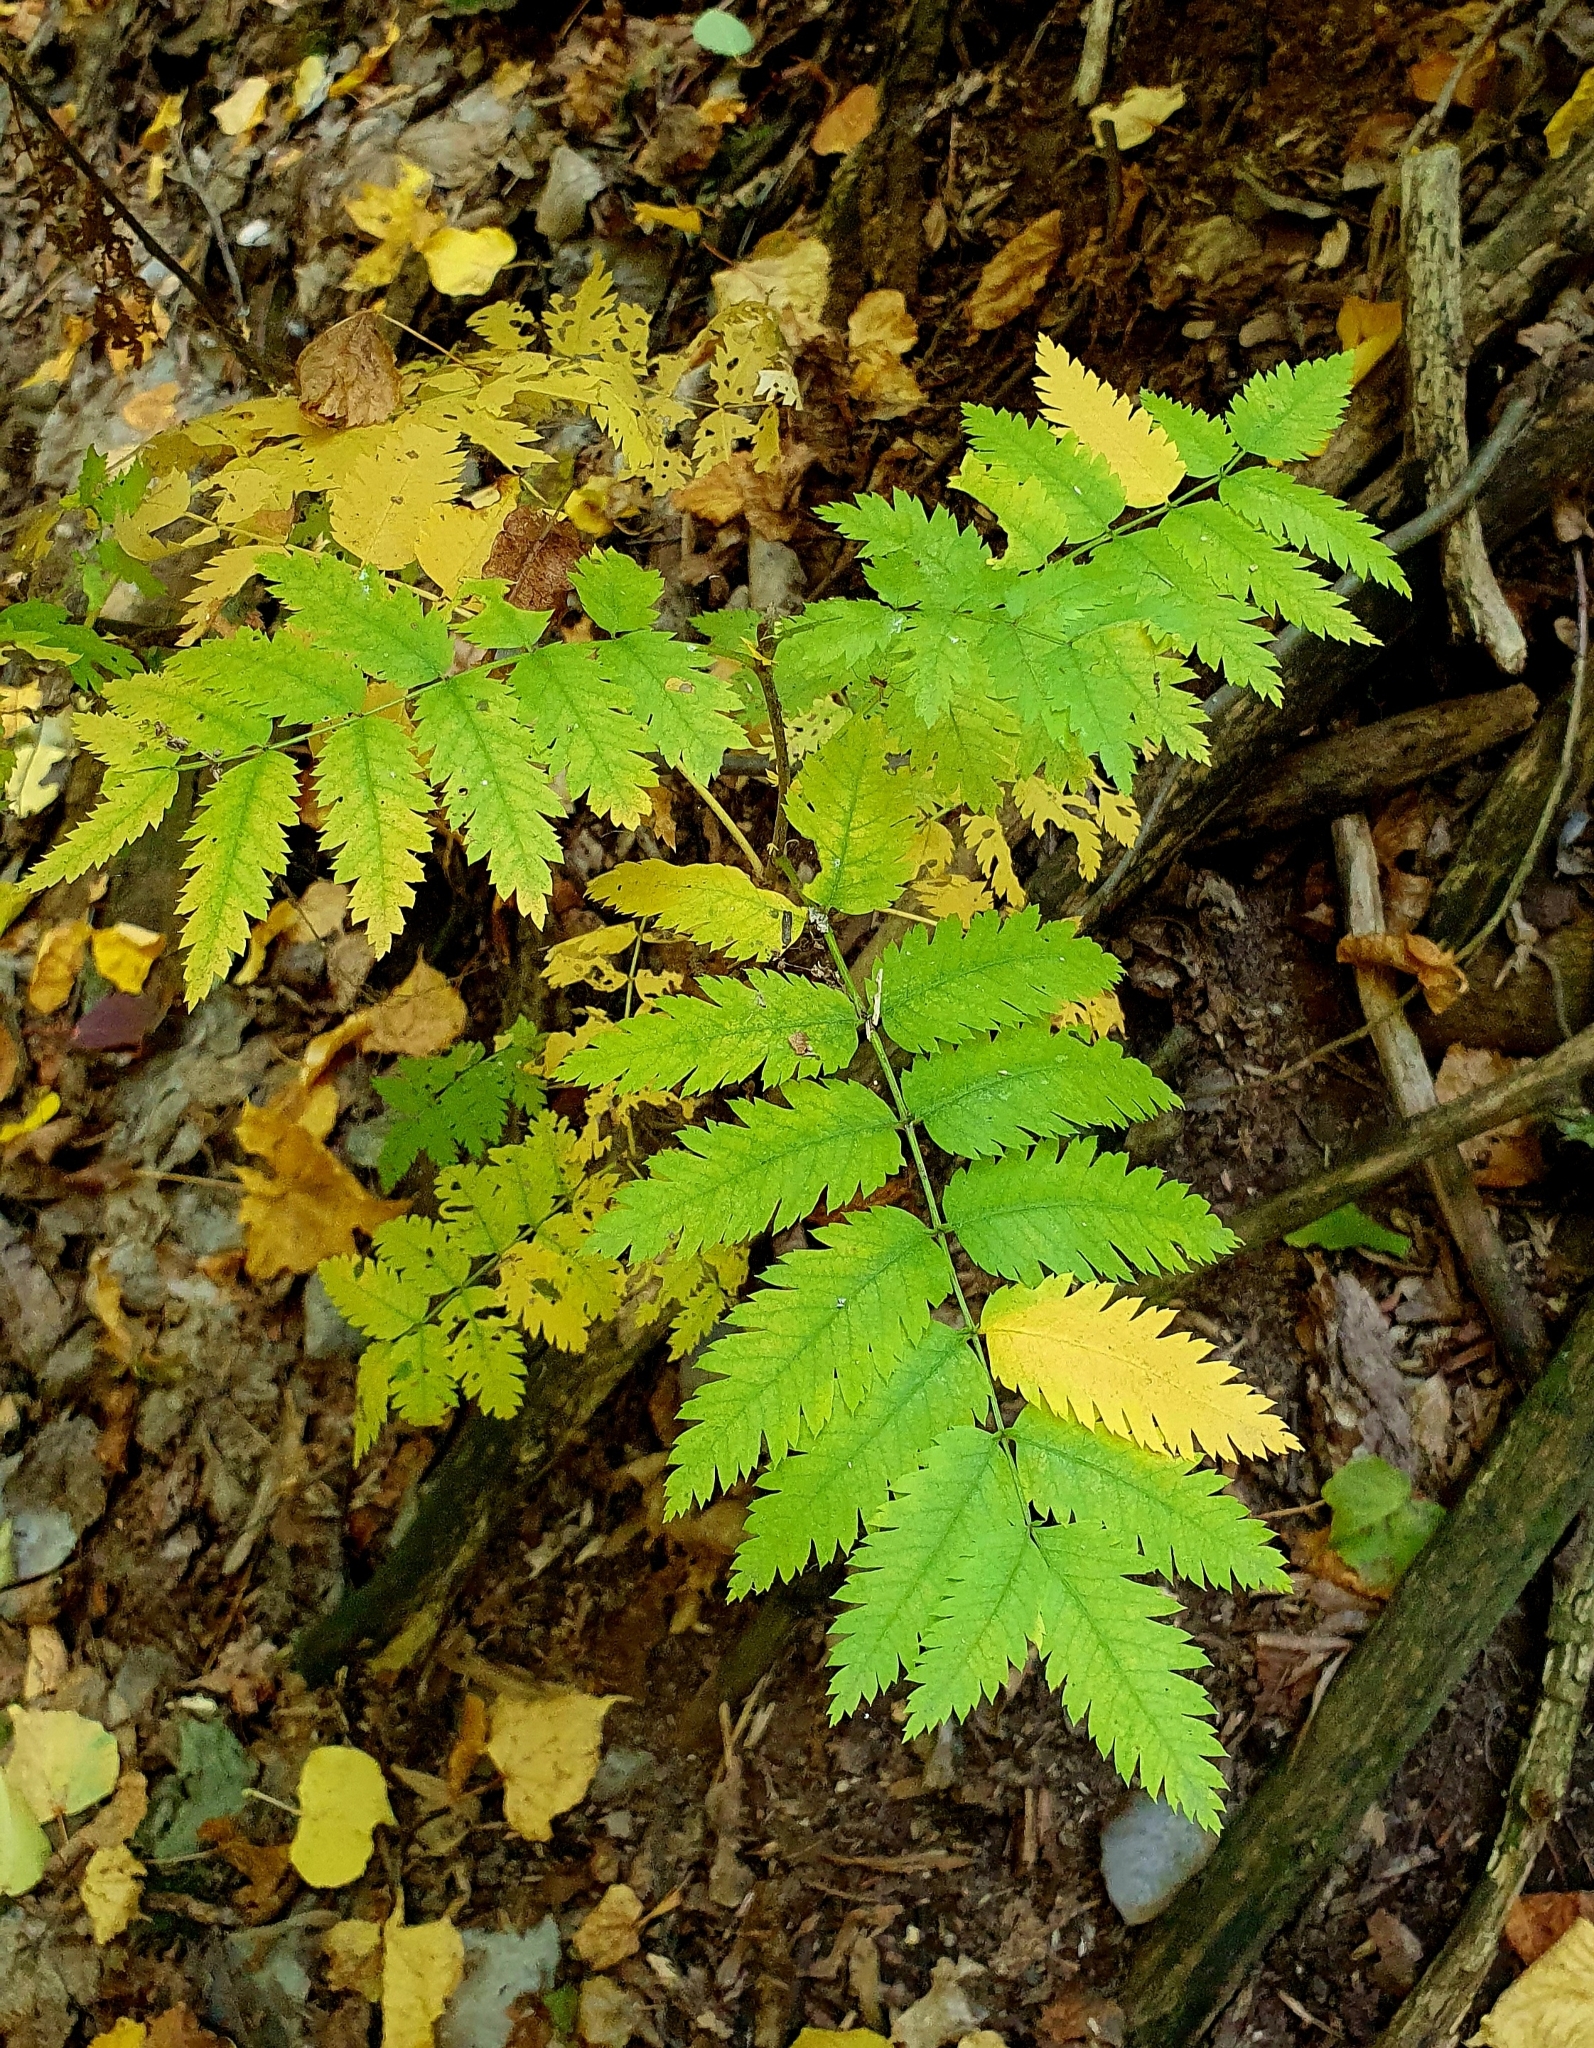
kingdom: Plantae
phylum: Tracheophyta
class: Magnoliopsida
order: Rosales
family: Rosaceae
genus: Sorbus
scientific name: Sorbus aucuparia
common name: Rowan
